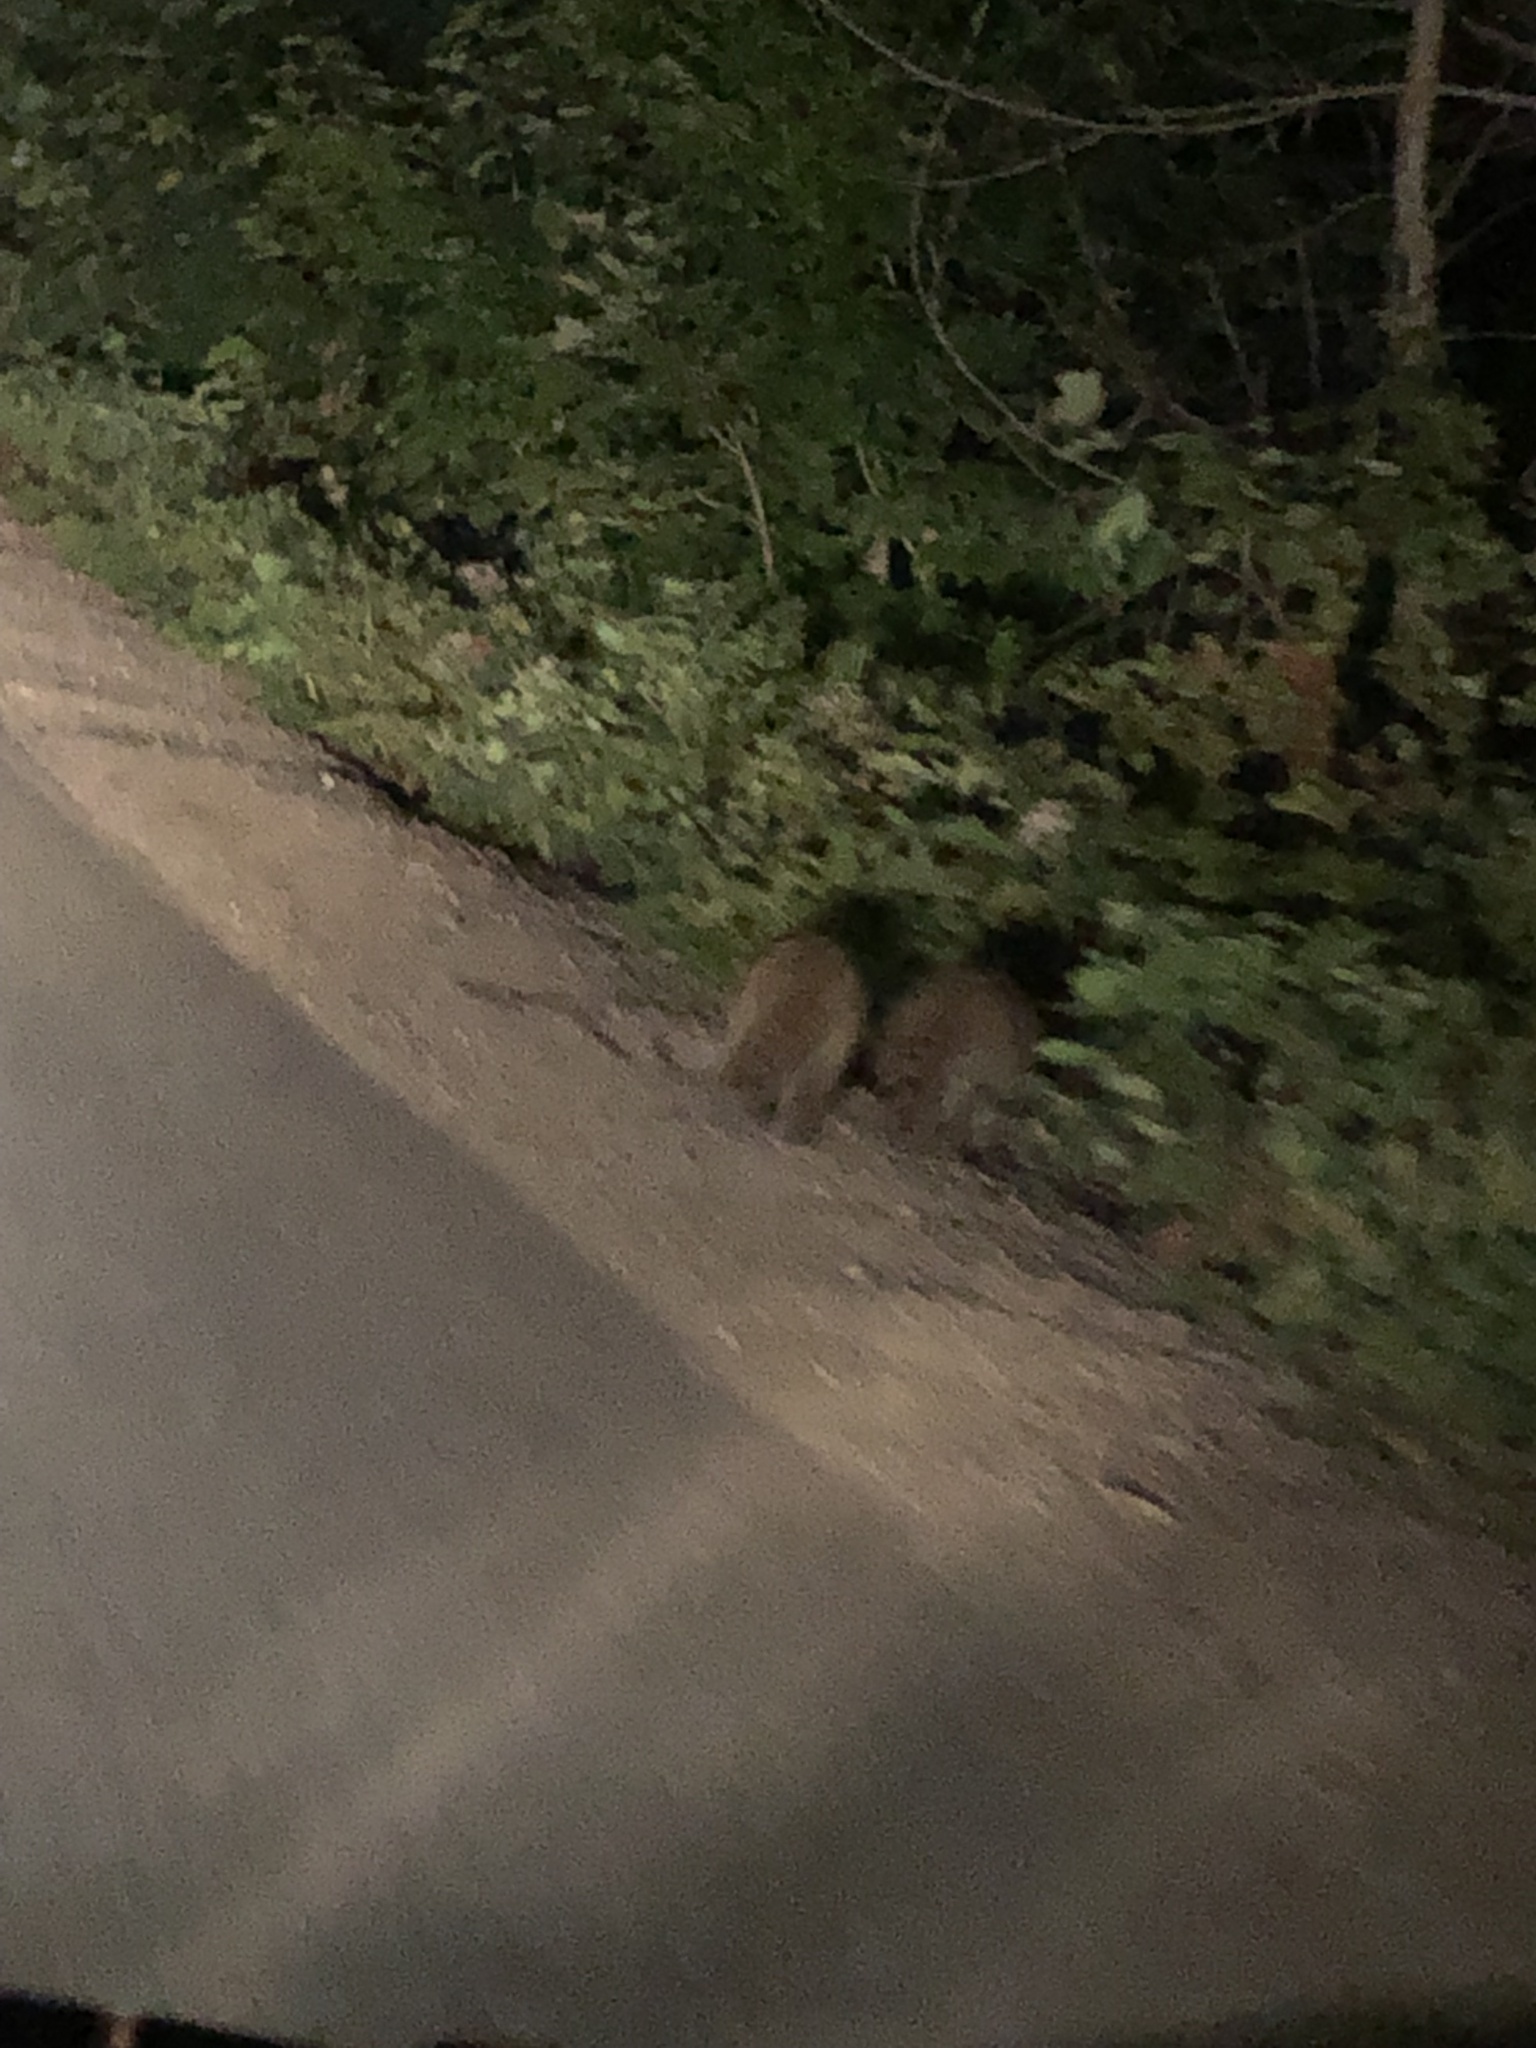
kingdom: Animalia
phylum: Chordata
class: Mammalia
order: Carnivora
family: Procyonidae
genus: Procyon
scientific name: Procyon lotor
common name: Raccoon
